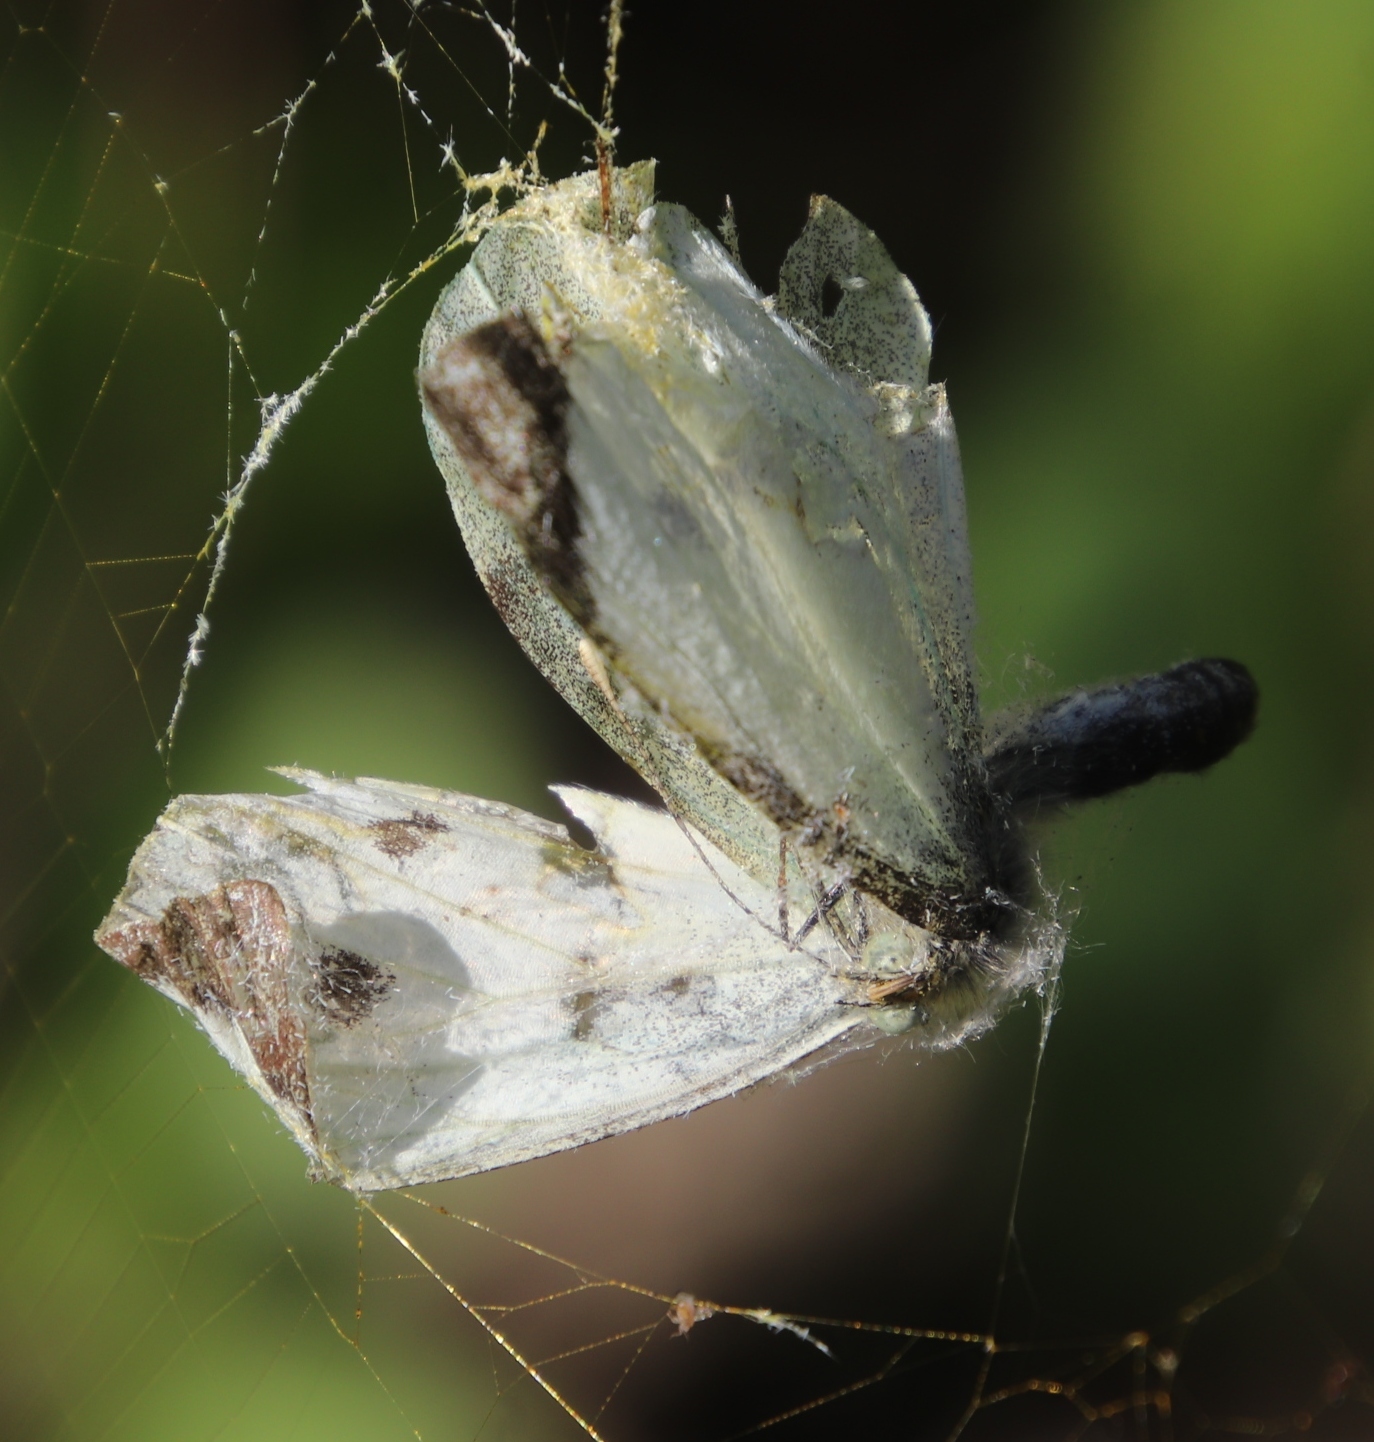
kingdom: Animalia
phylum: Arthropoda
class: Insecta
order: Lepidoptera
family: Pieridae
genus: Pieris
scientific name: Pieris brassicae
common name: Large white
